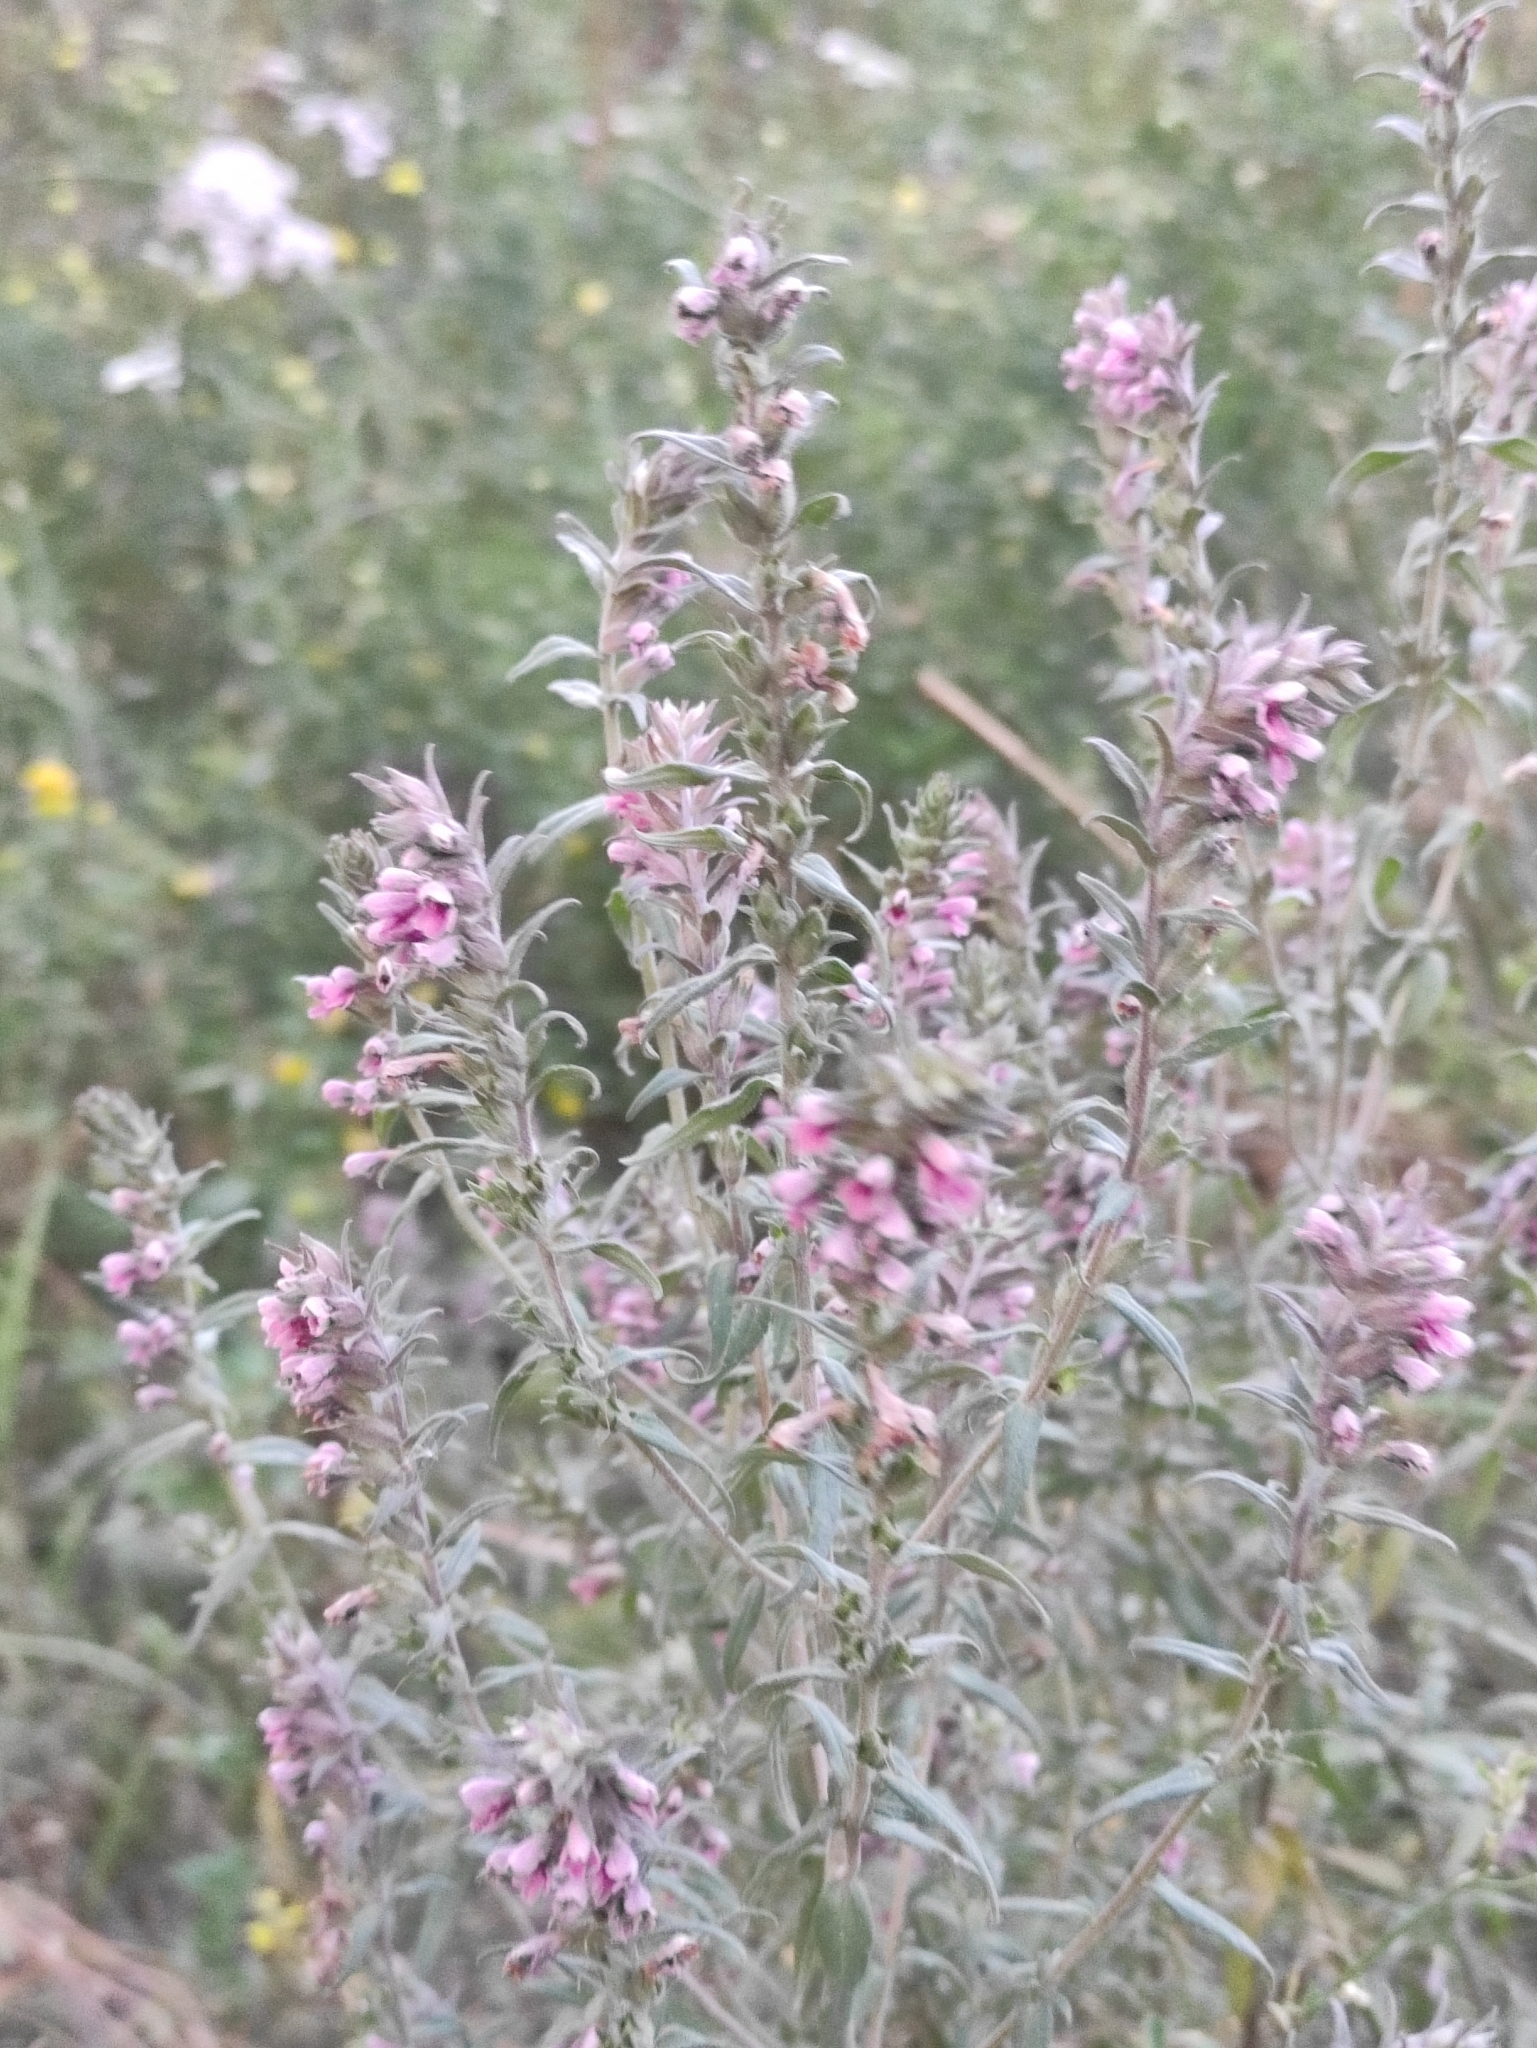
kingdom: Plantae
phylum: Tracheophyta
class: Magnoliopsida
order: Lamiales
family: Orobanchaceae
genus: Odontites
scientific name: Odontites vulgaris
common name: Broomrape
